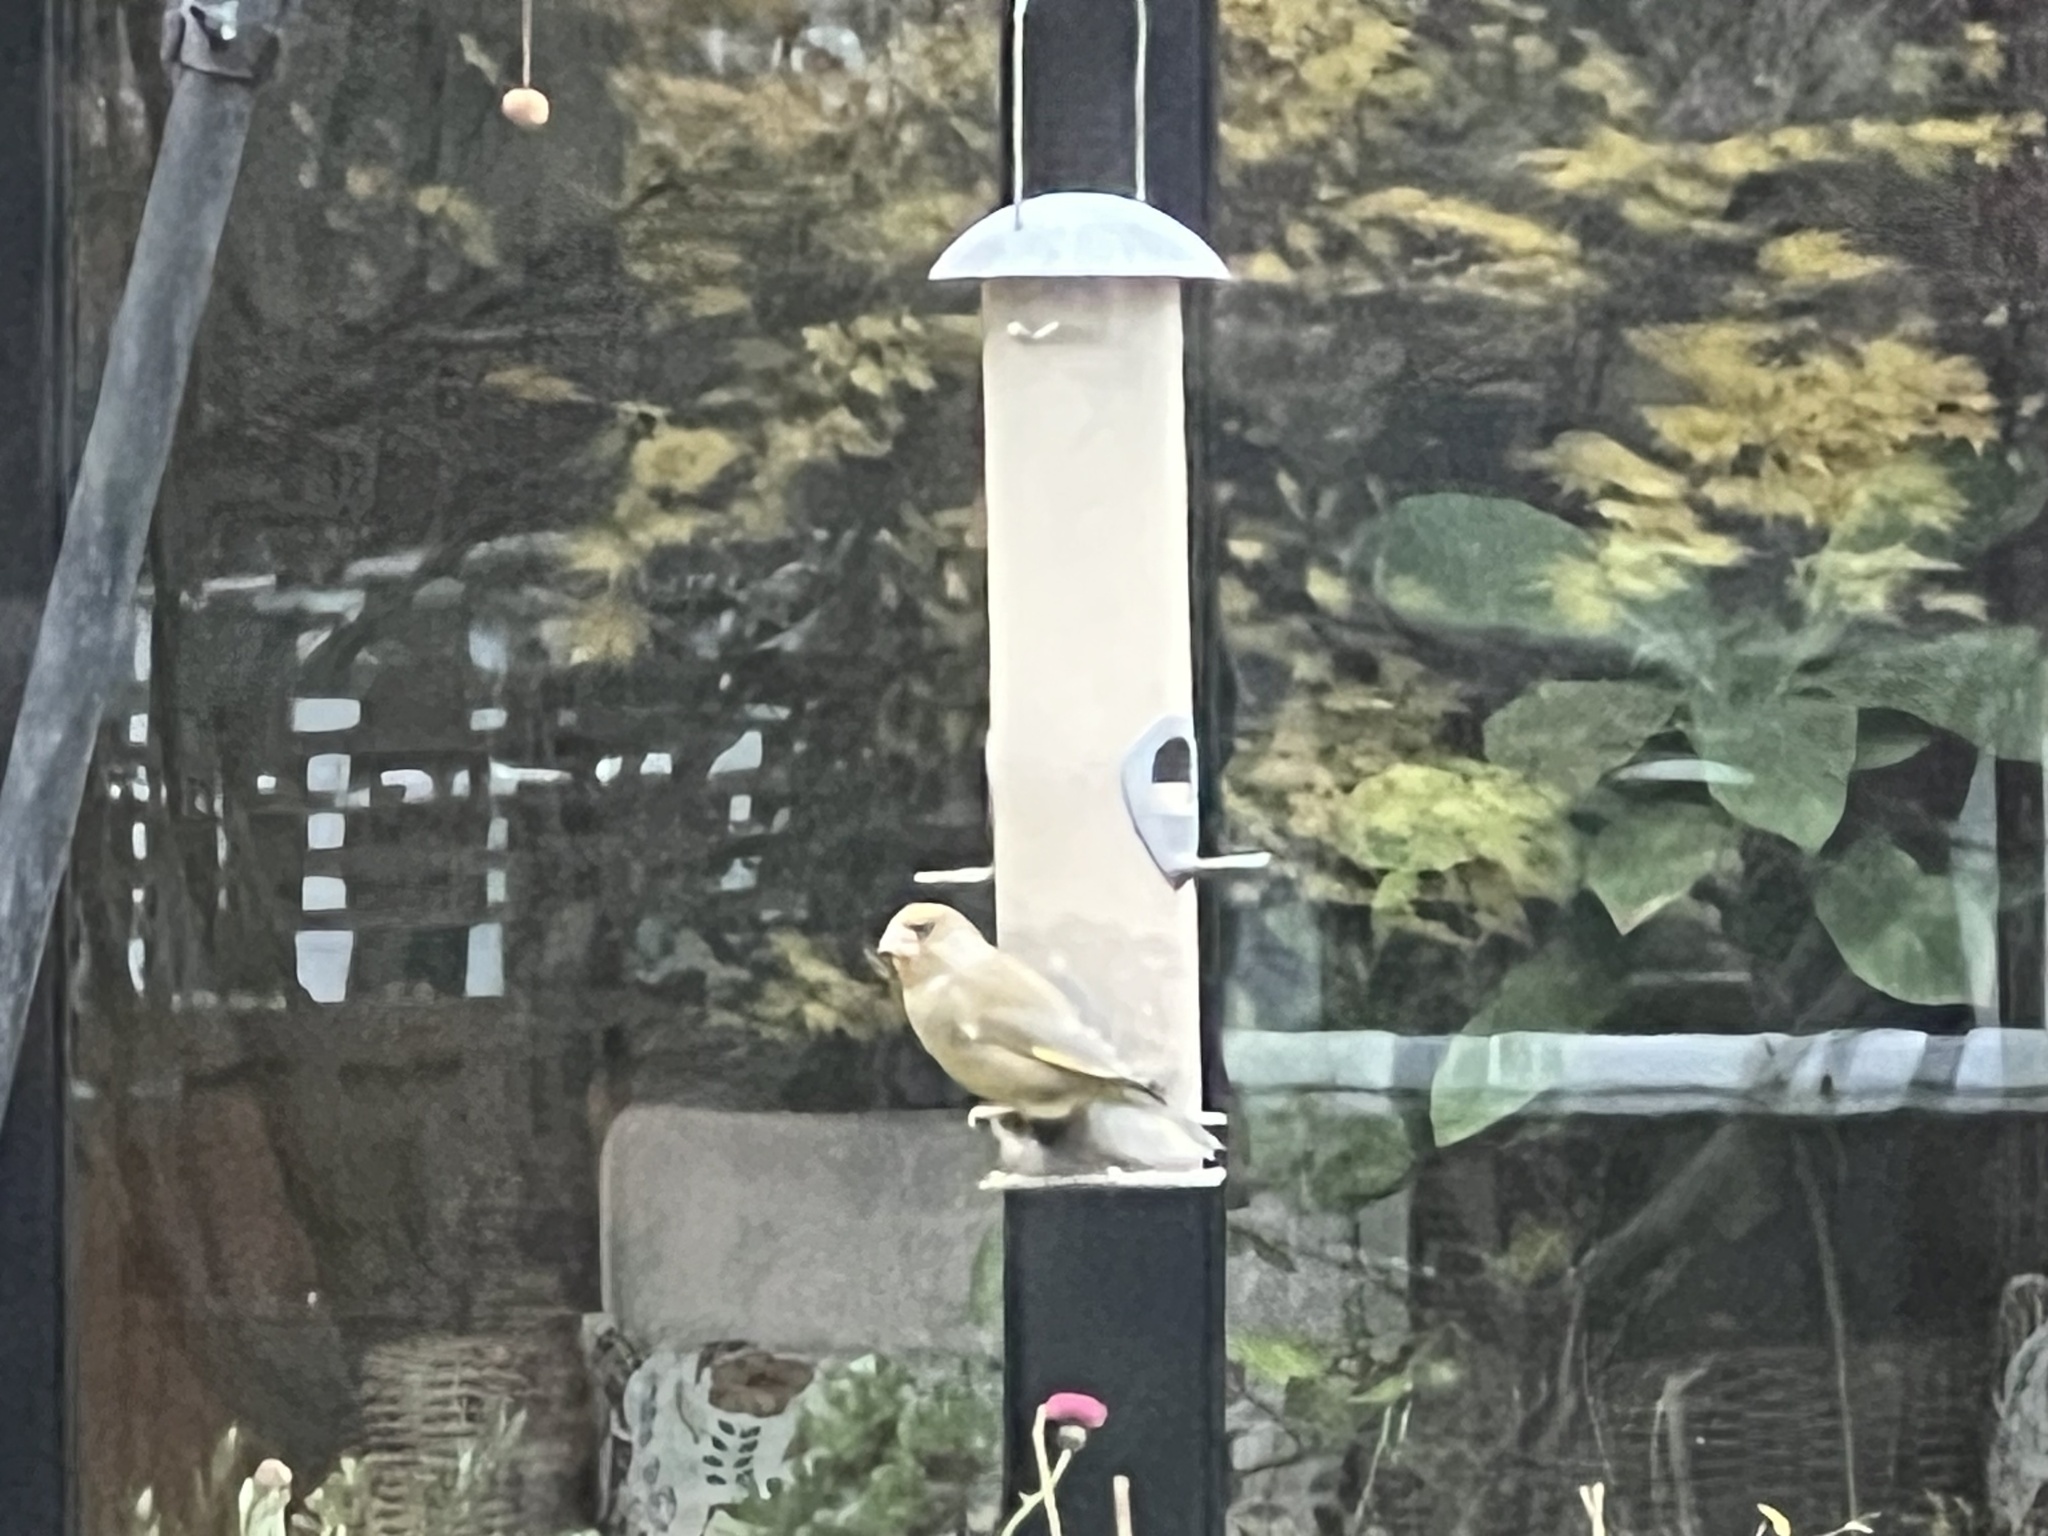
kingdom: Plantae
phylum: Tracheophyta
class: Liliopsida
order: Poales
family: Poaceae
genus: Chloris
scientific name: Chloris chloris
